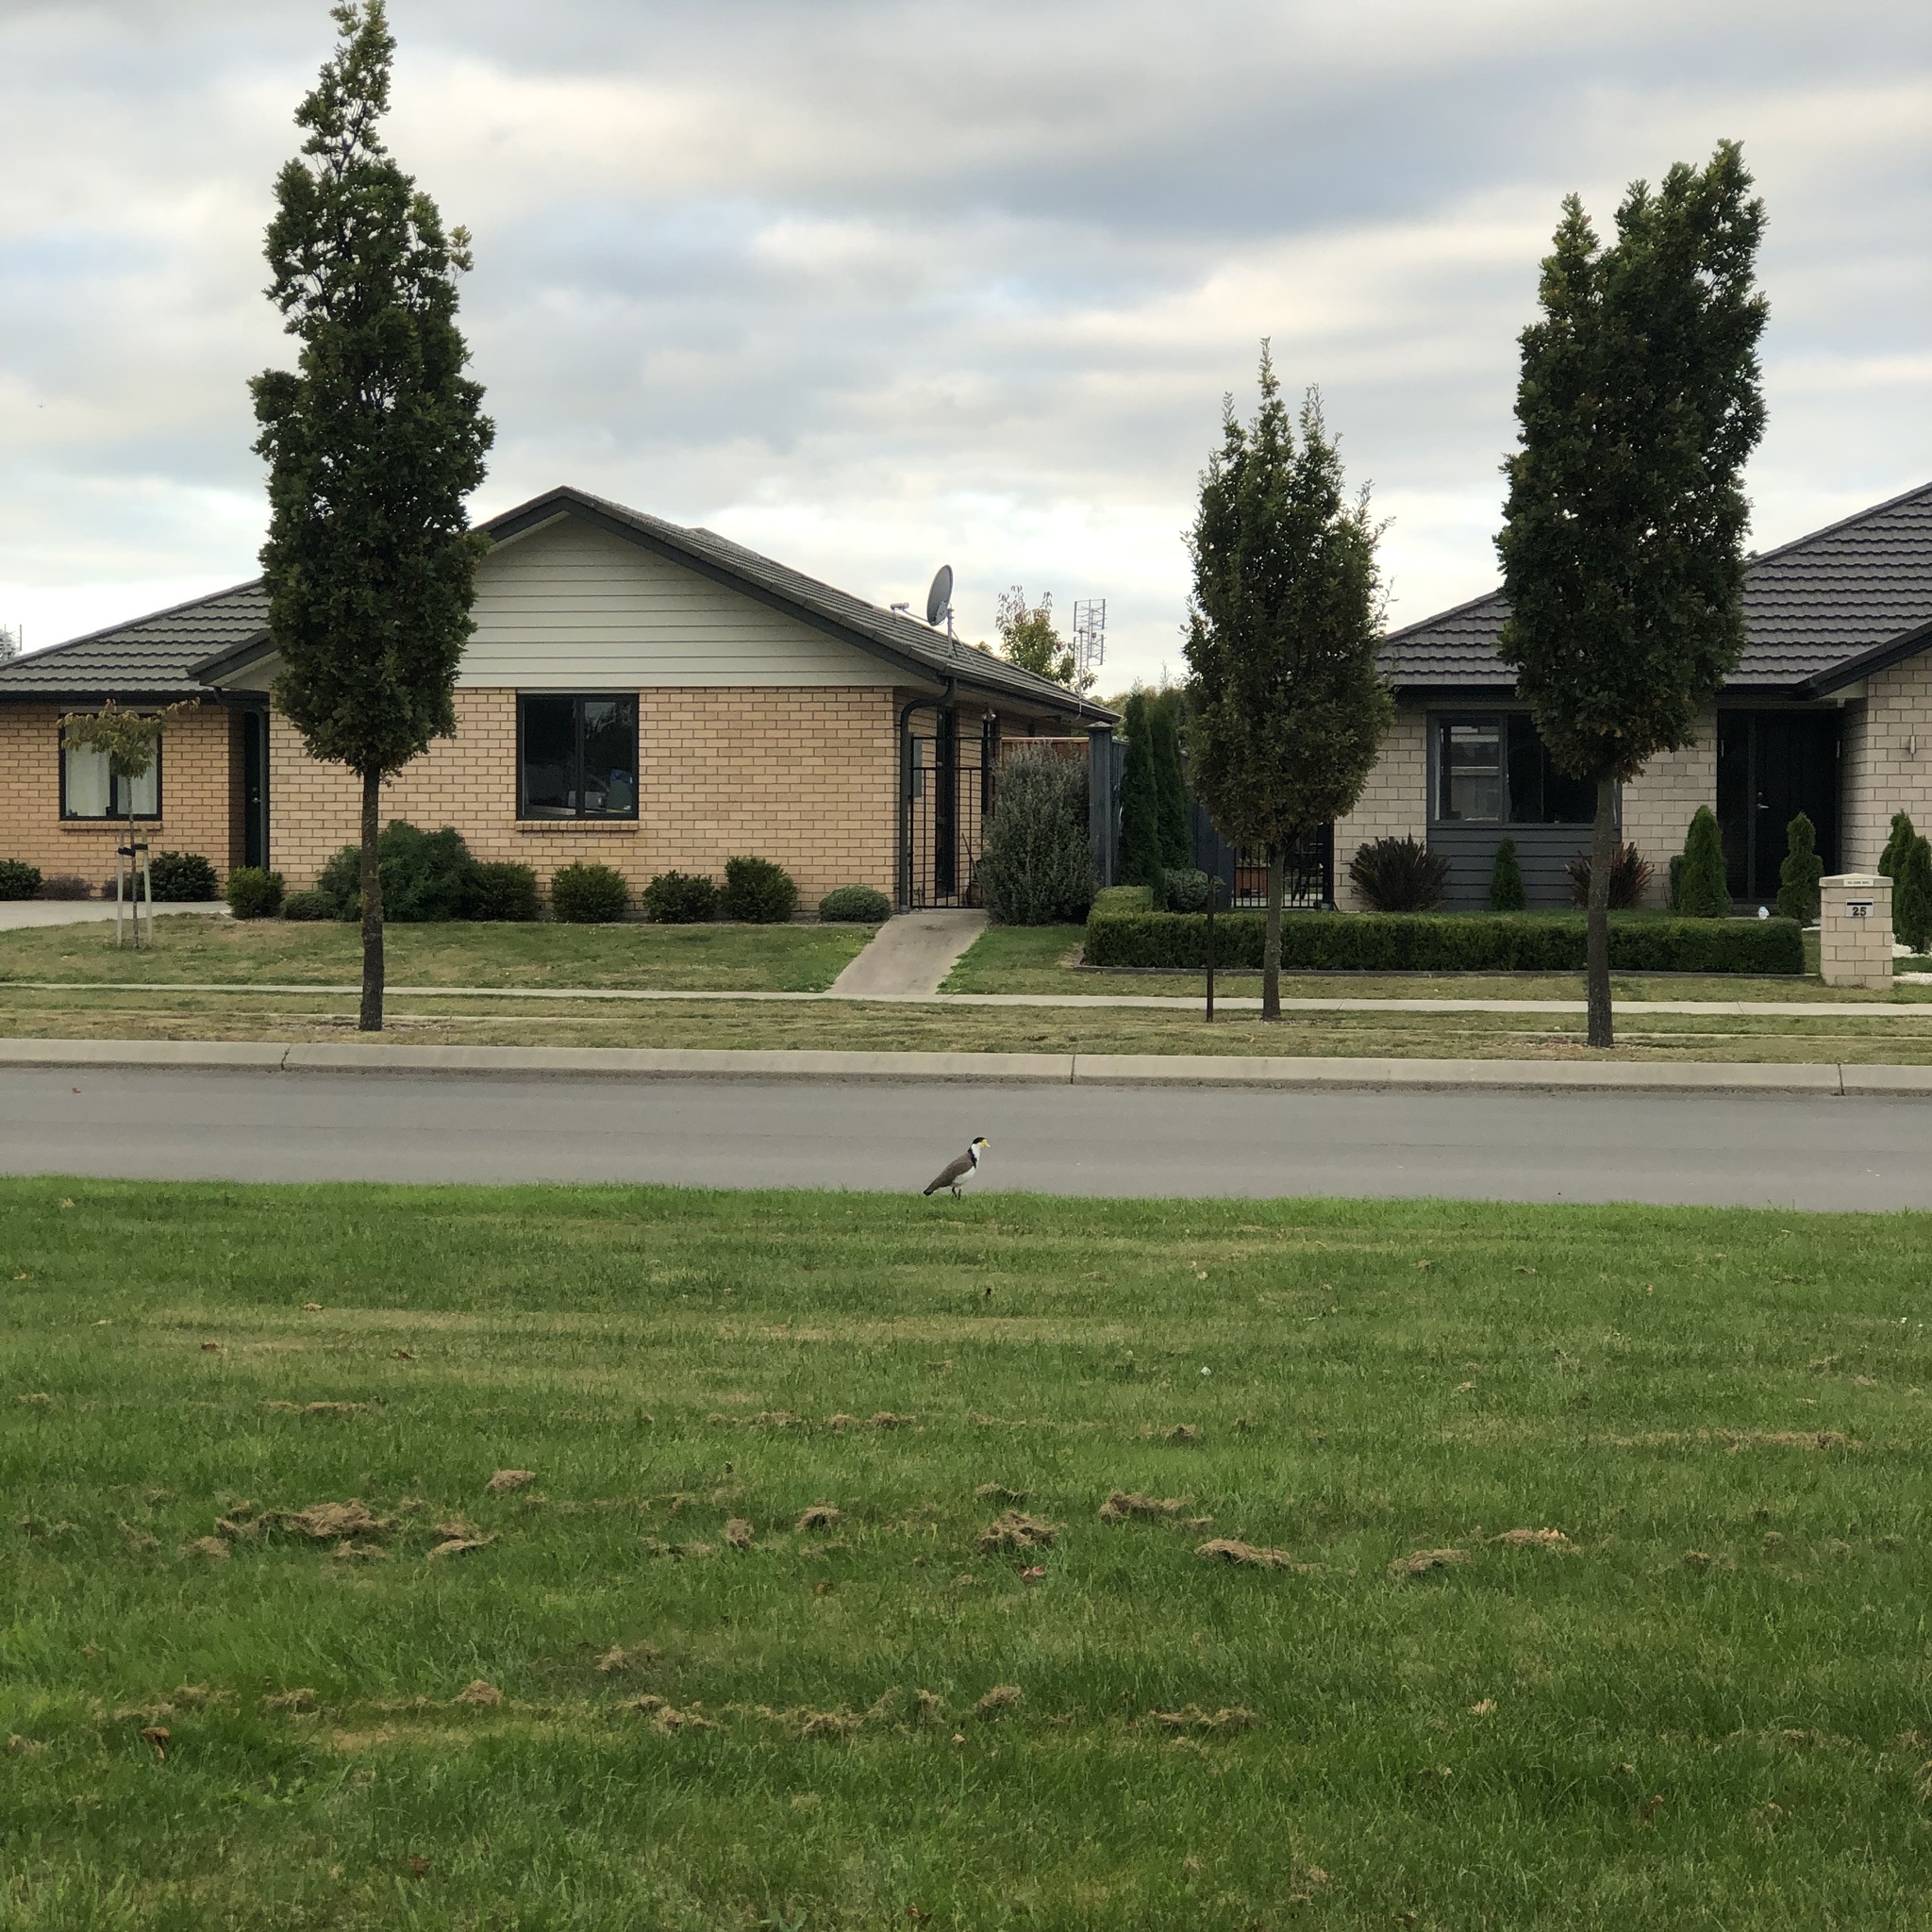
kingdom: Animalia
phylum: Chordata
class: Aves
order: Charadriiformes
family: Charadriidae
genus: Vanellus
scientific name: Vanellus miles
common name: Masked lapwing
